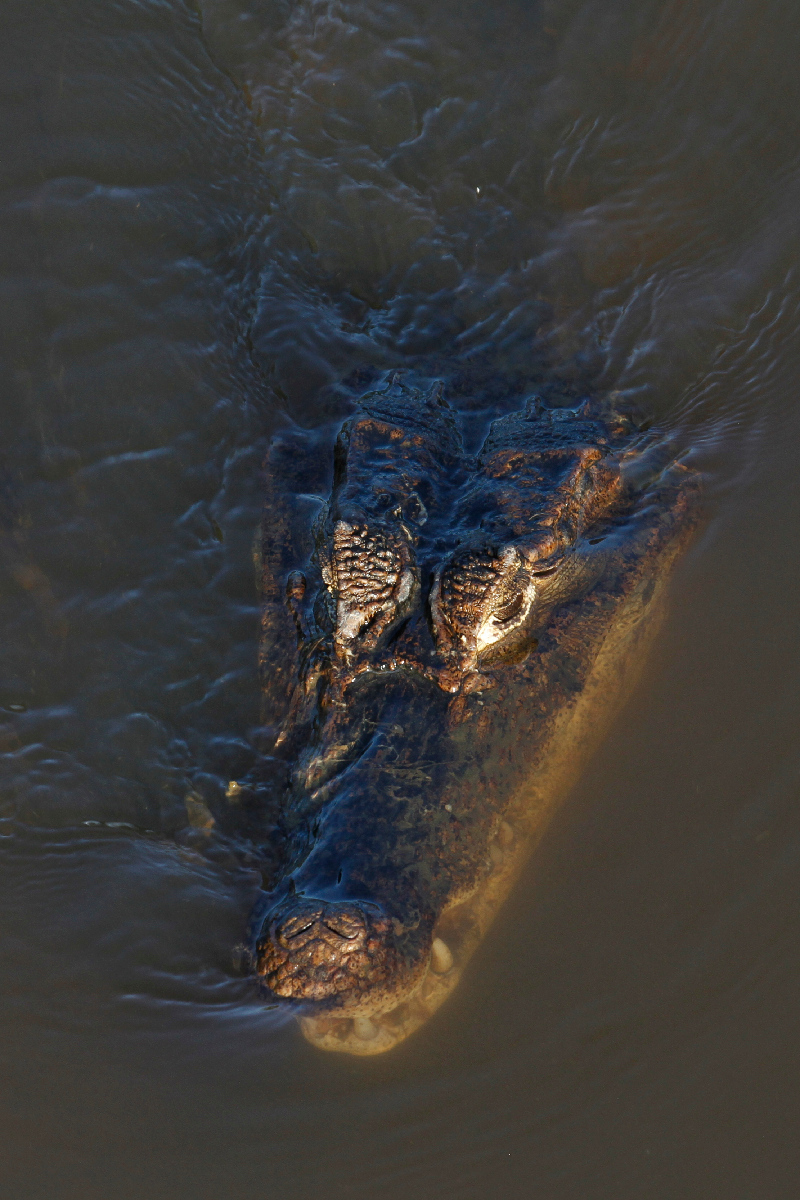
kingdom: Animalia
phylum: Chordata
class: Crocodylia
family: Alligatoridae
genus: Caiman
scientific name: Caiman crocodilus
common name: Common caiman
